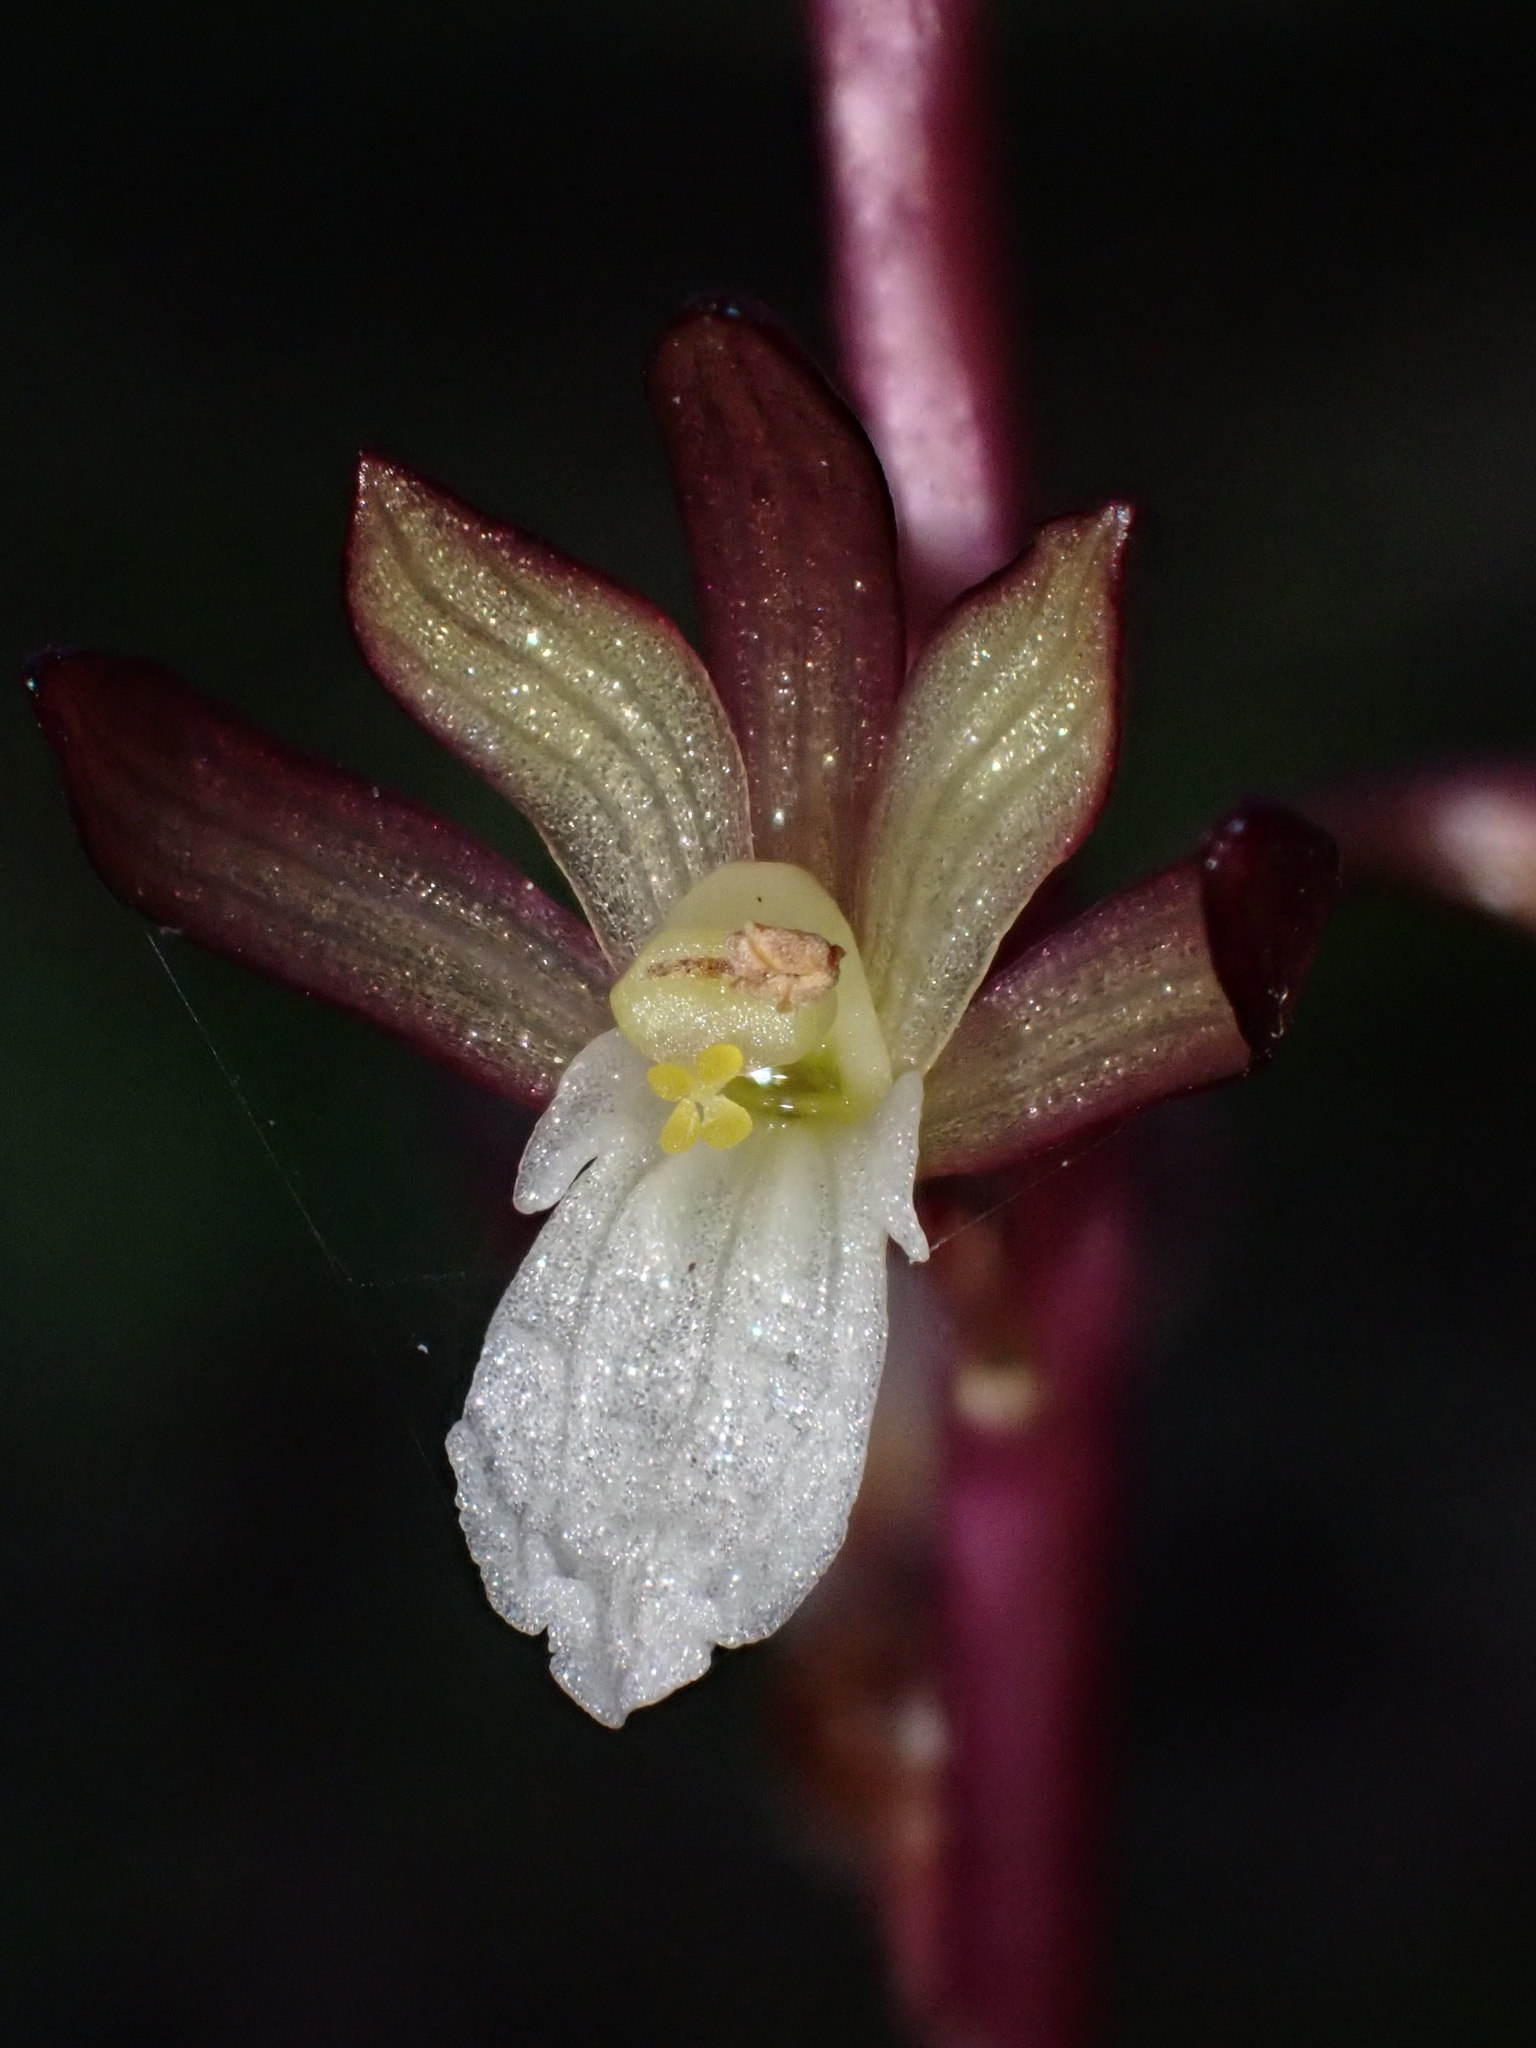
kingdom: Plantae
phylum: Tracheophyta
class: Liliopsida
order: Asparagales
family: Orchidaceae
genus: Corallorhiza
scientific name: Corallorhiza maculata
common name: Spotted coralroot
